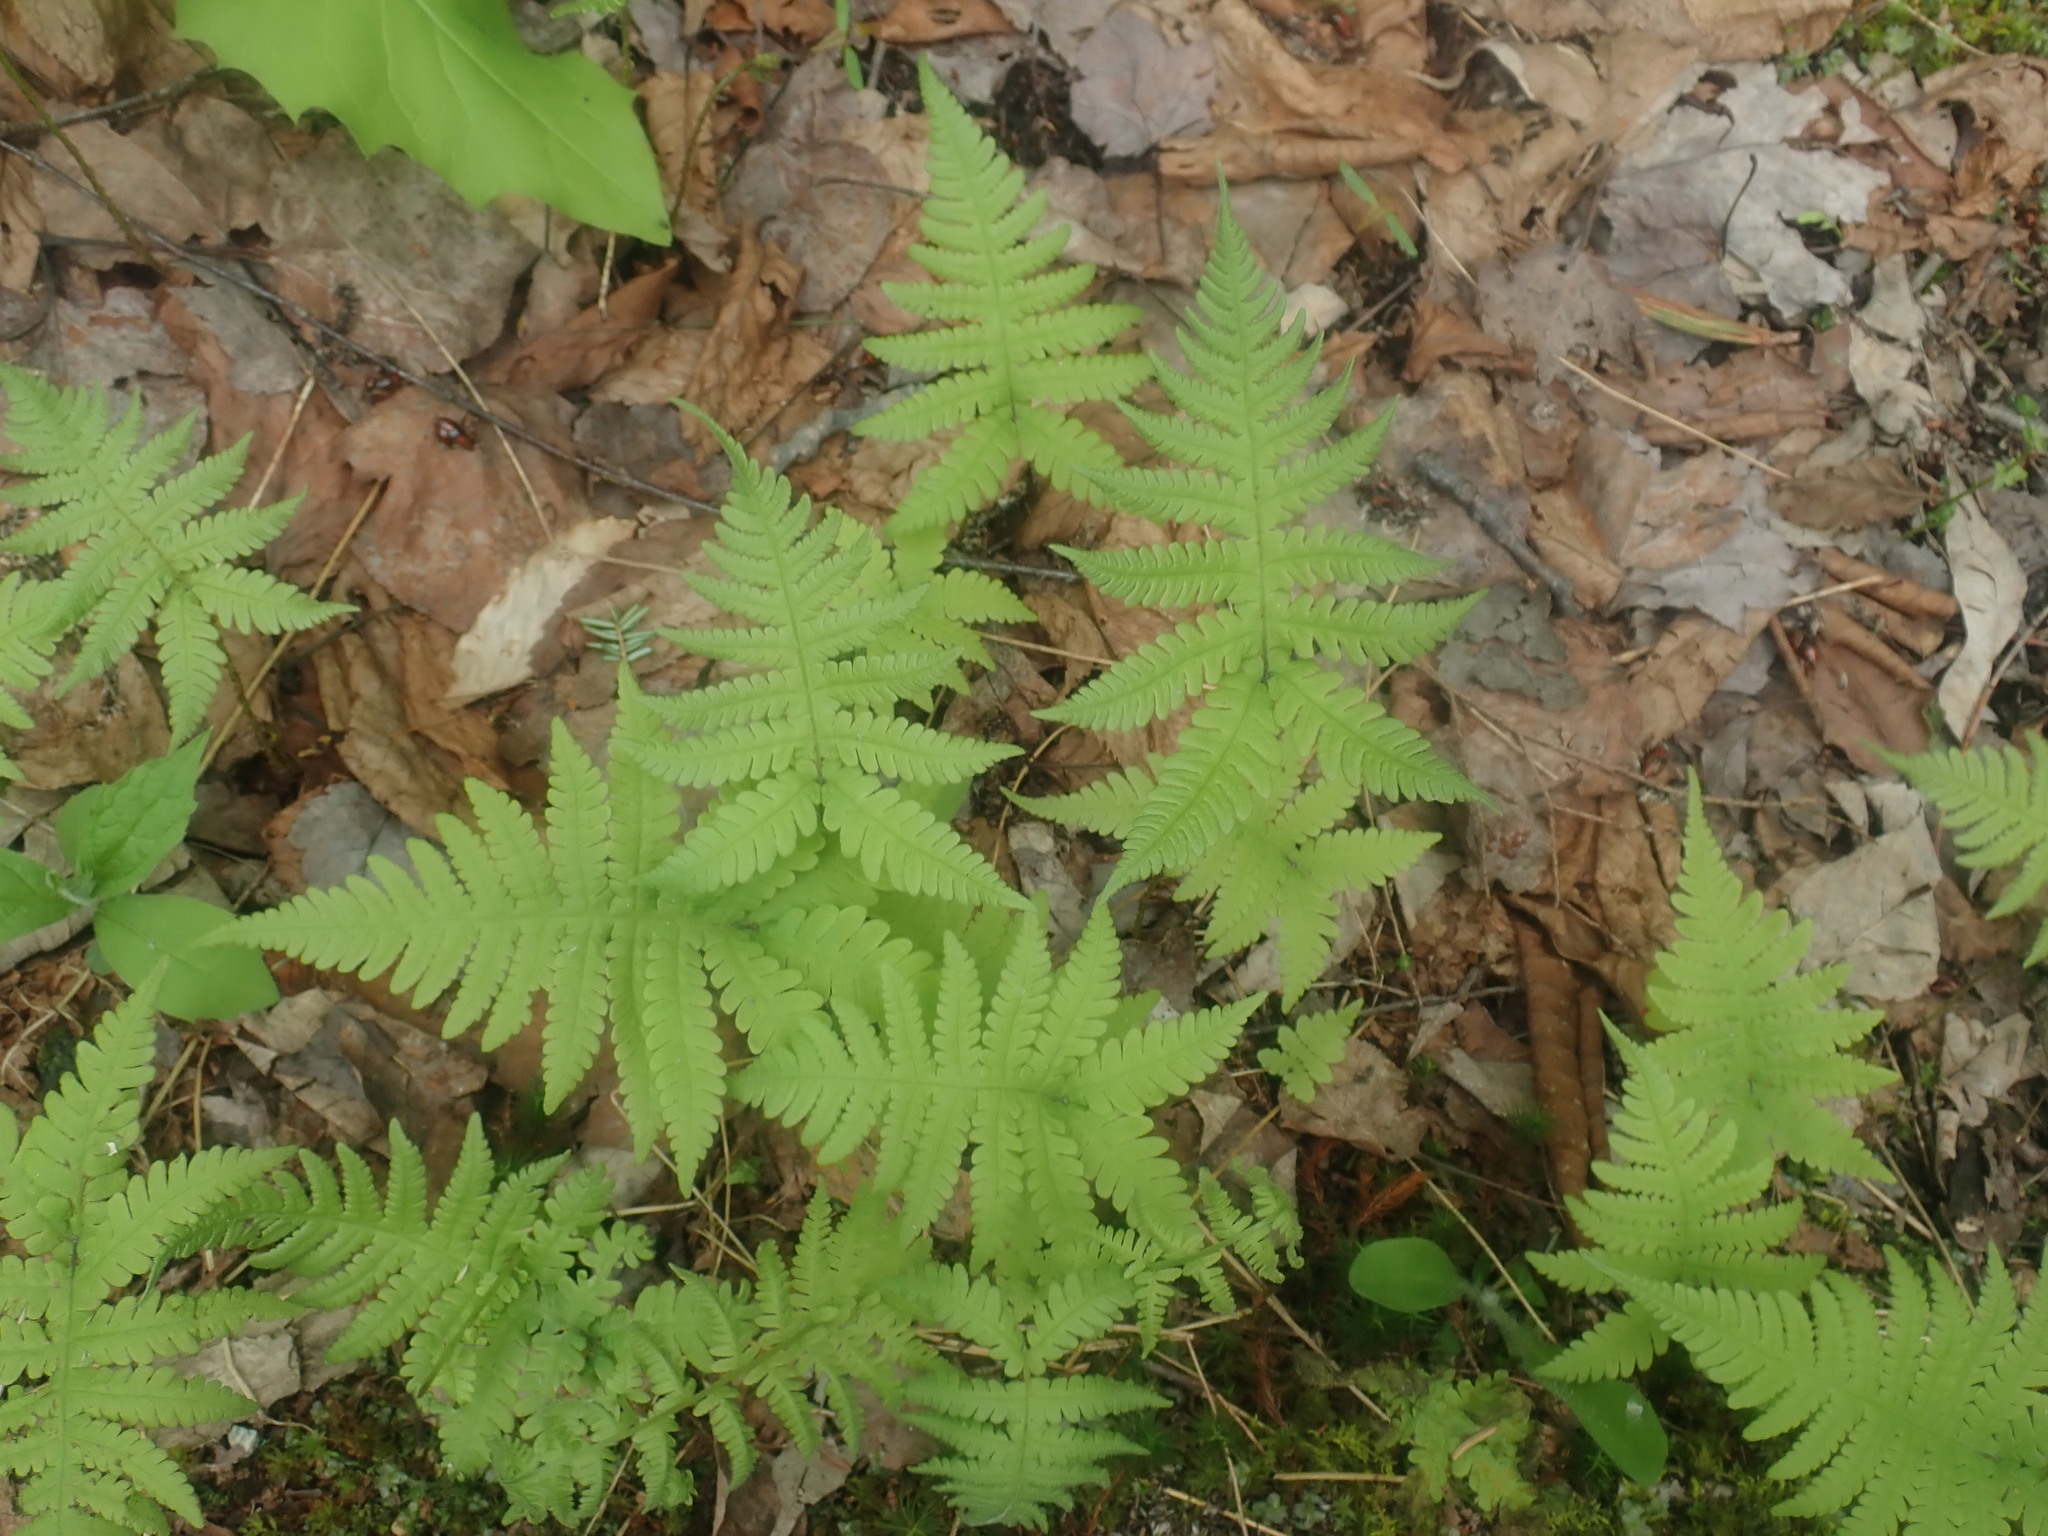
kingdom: Plantae
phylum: Tracheophyta
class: Polypodiopsida
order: Polypodiales
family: Thelypteridaceae
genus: Phegopteris
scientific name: Phegopteris connectilis
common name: Beech fern
